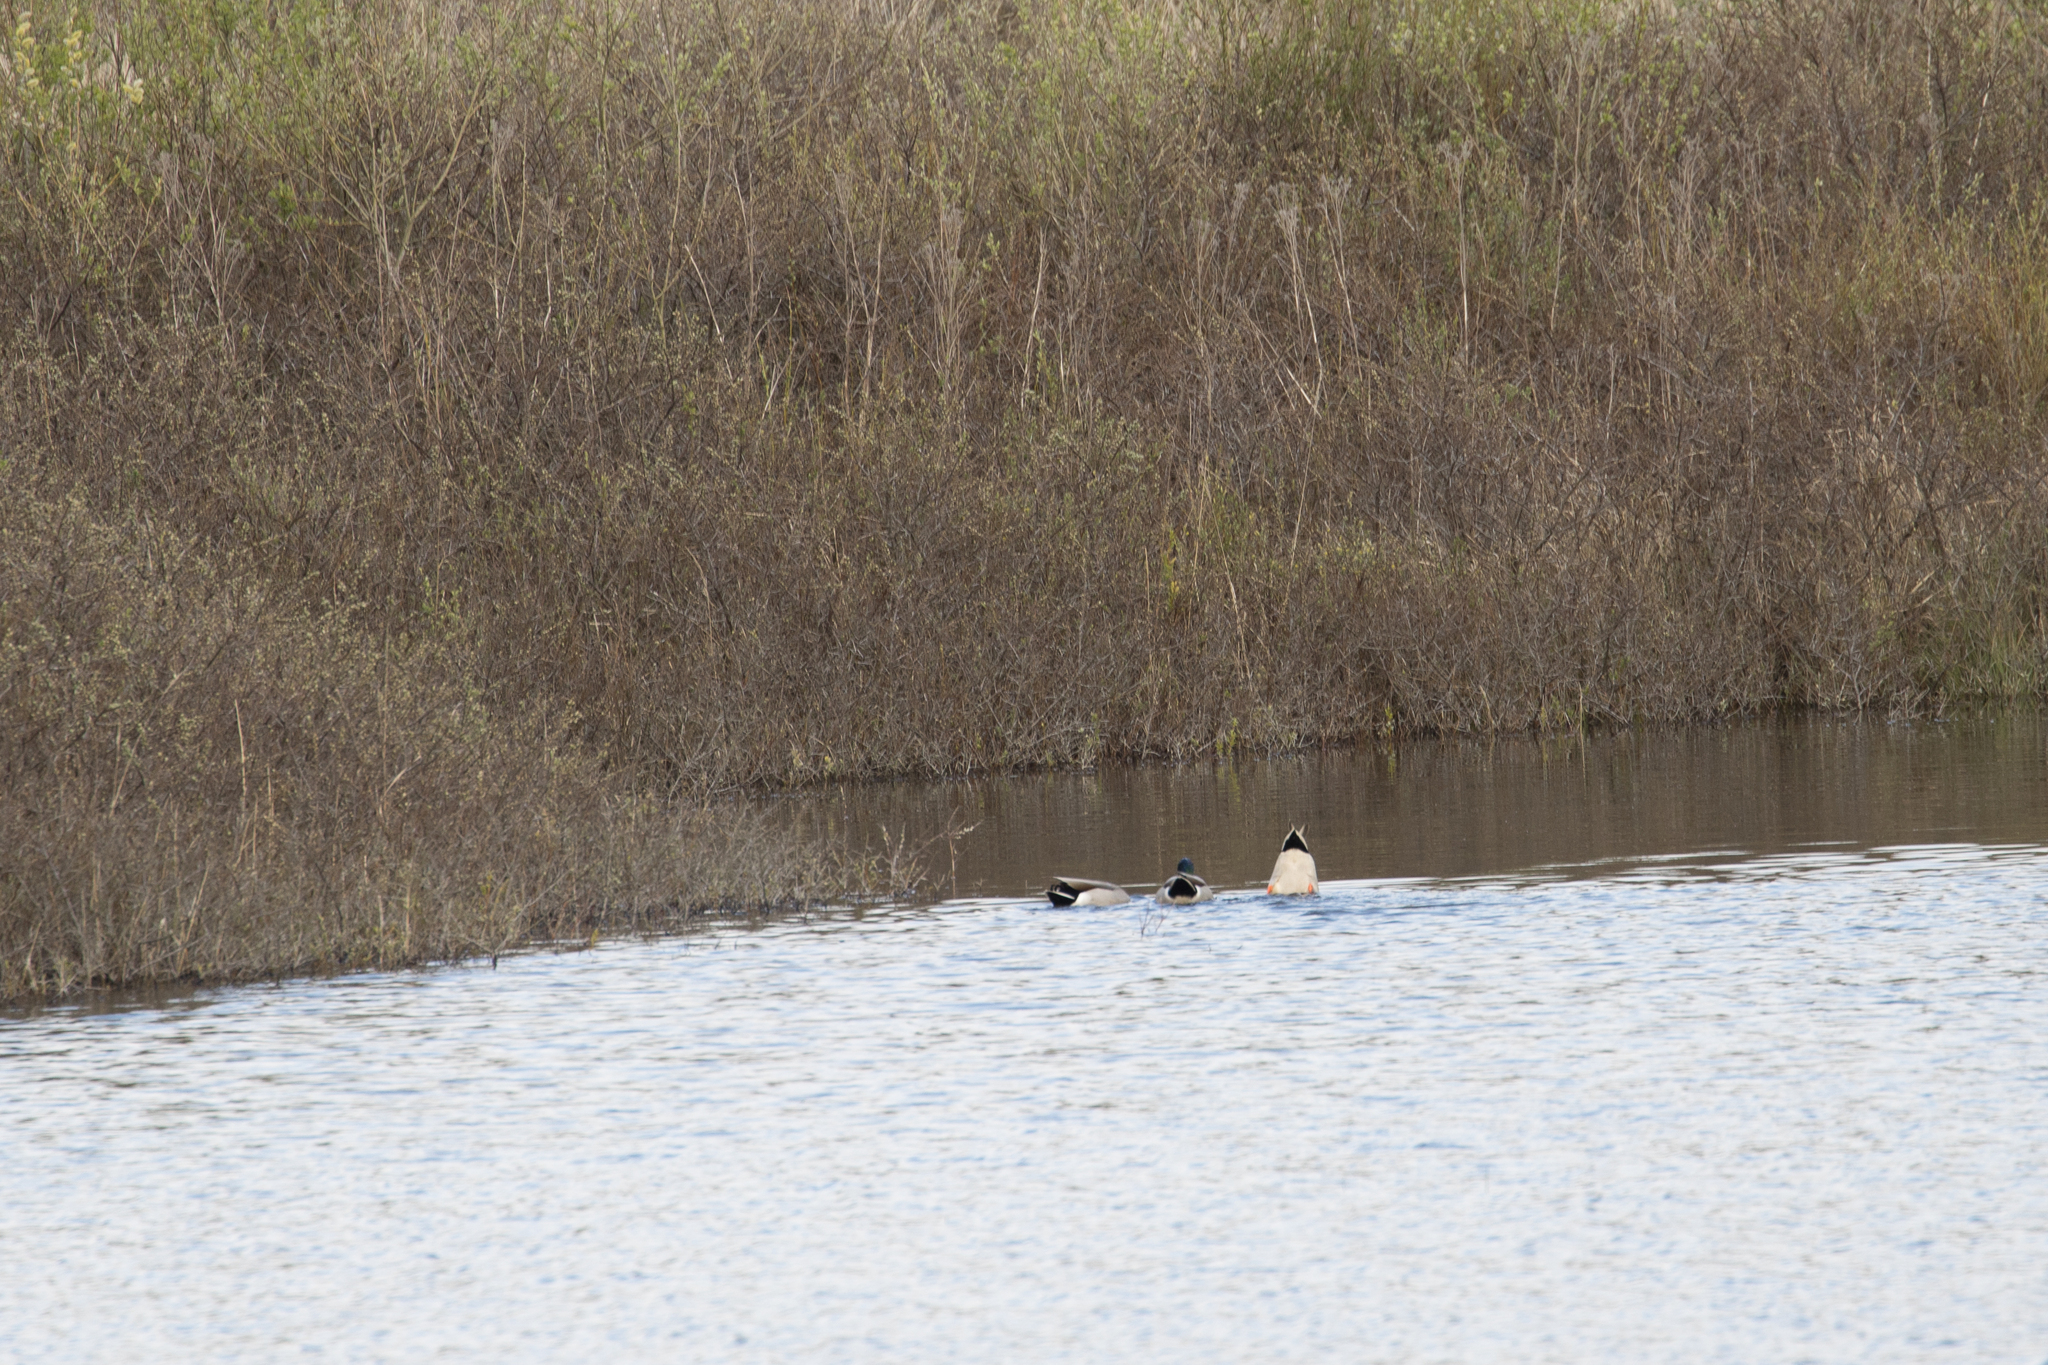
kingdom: Animalia
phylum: Chordata
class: Aves
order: Anseriformes
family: Anatidae
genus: Anas
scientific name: Anas platyrhynchos
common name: Mallard
